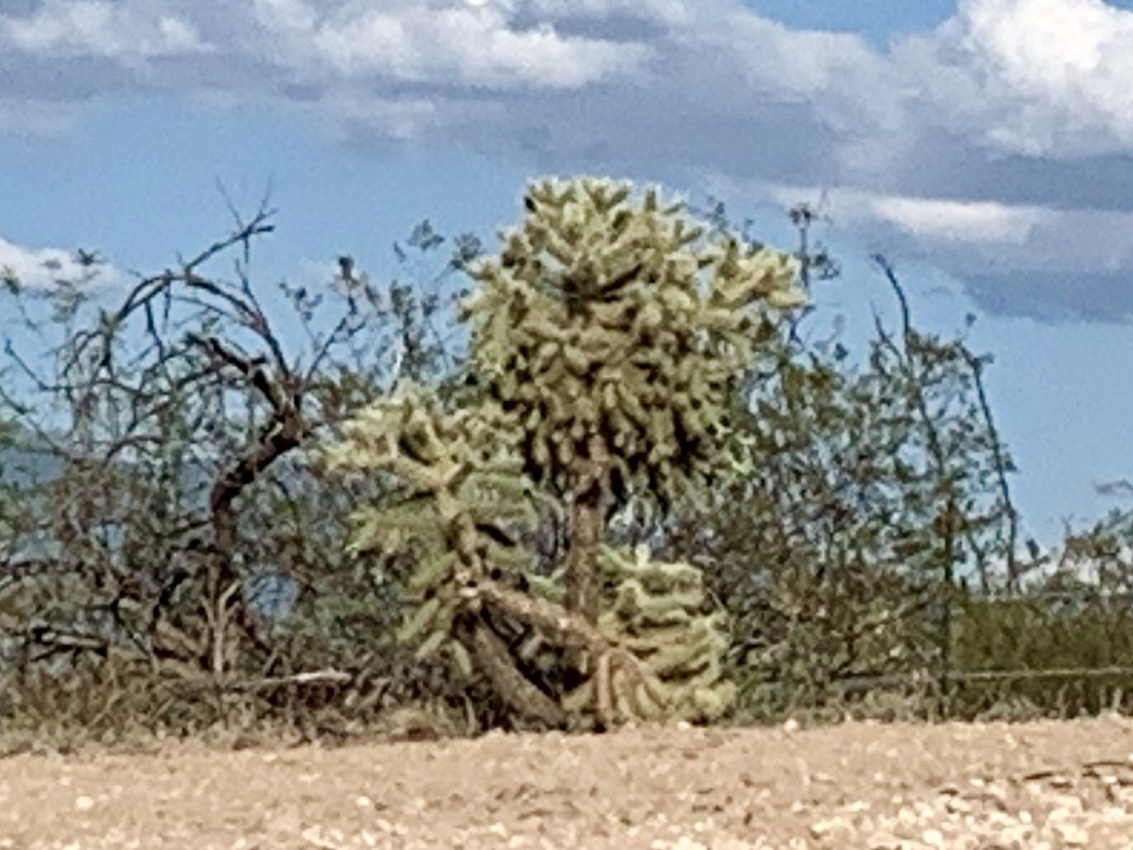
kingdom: Plantae
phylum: Tracheophyta
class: Magnoliopsida
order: Caryophyllales
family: Cactaceae
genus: Cylindropuntia
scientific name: Cylindropuntia fulgida
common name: Jumping cholla
